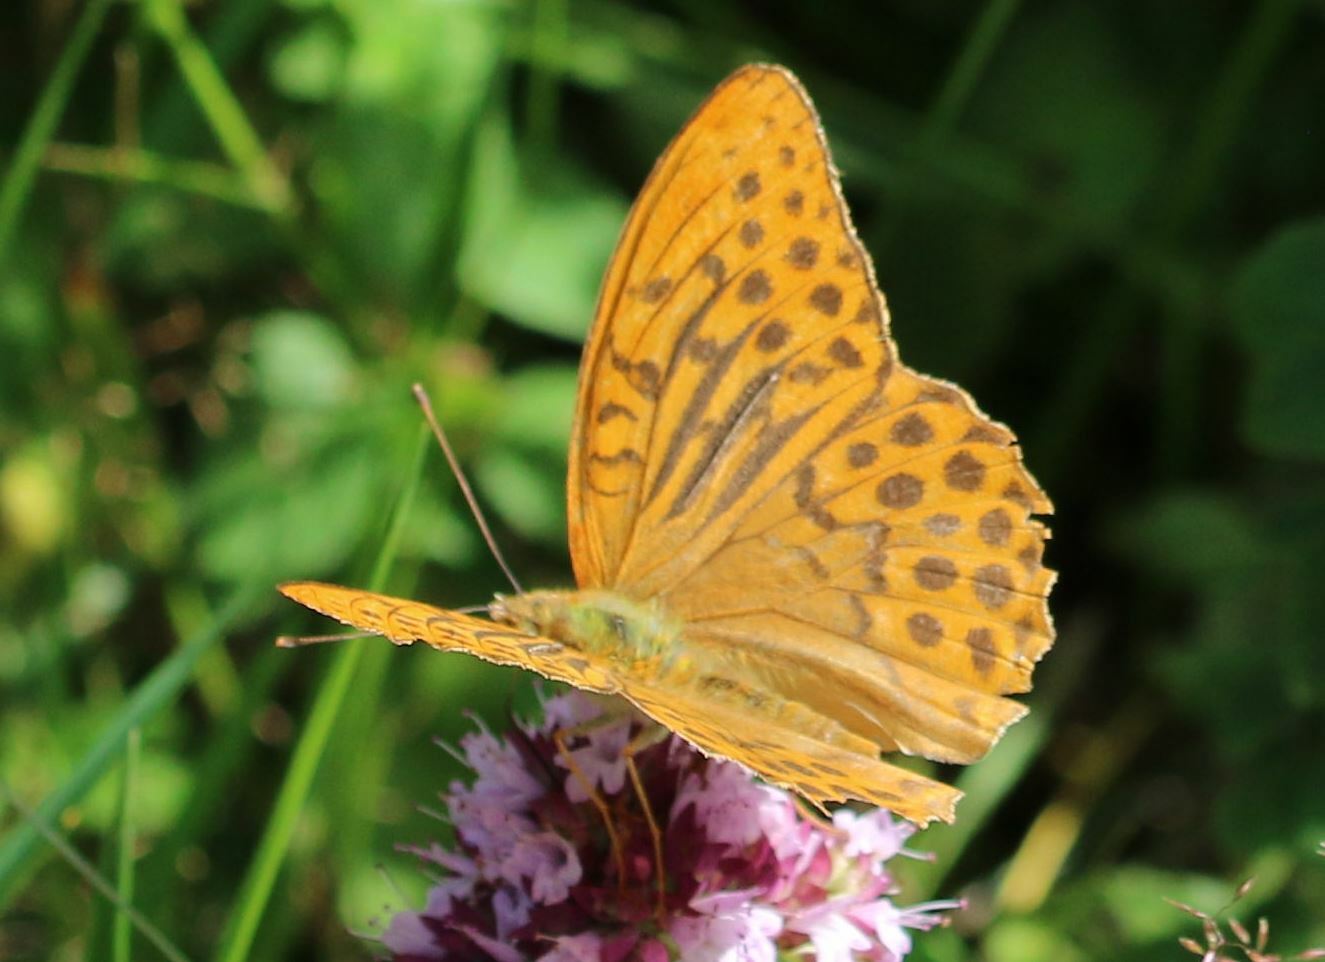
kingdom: Animalia
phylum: Arthropoda
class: Insecta
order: Lepidoptera
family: Nymphalidae
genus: Argynnis
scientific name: Argynnis paphia
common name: Silver-washed fritillary
